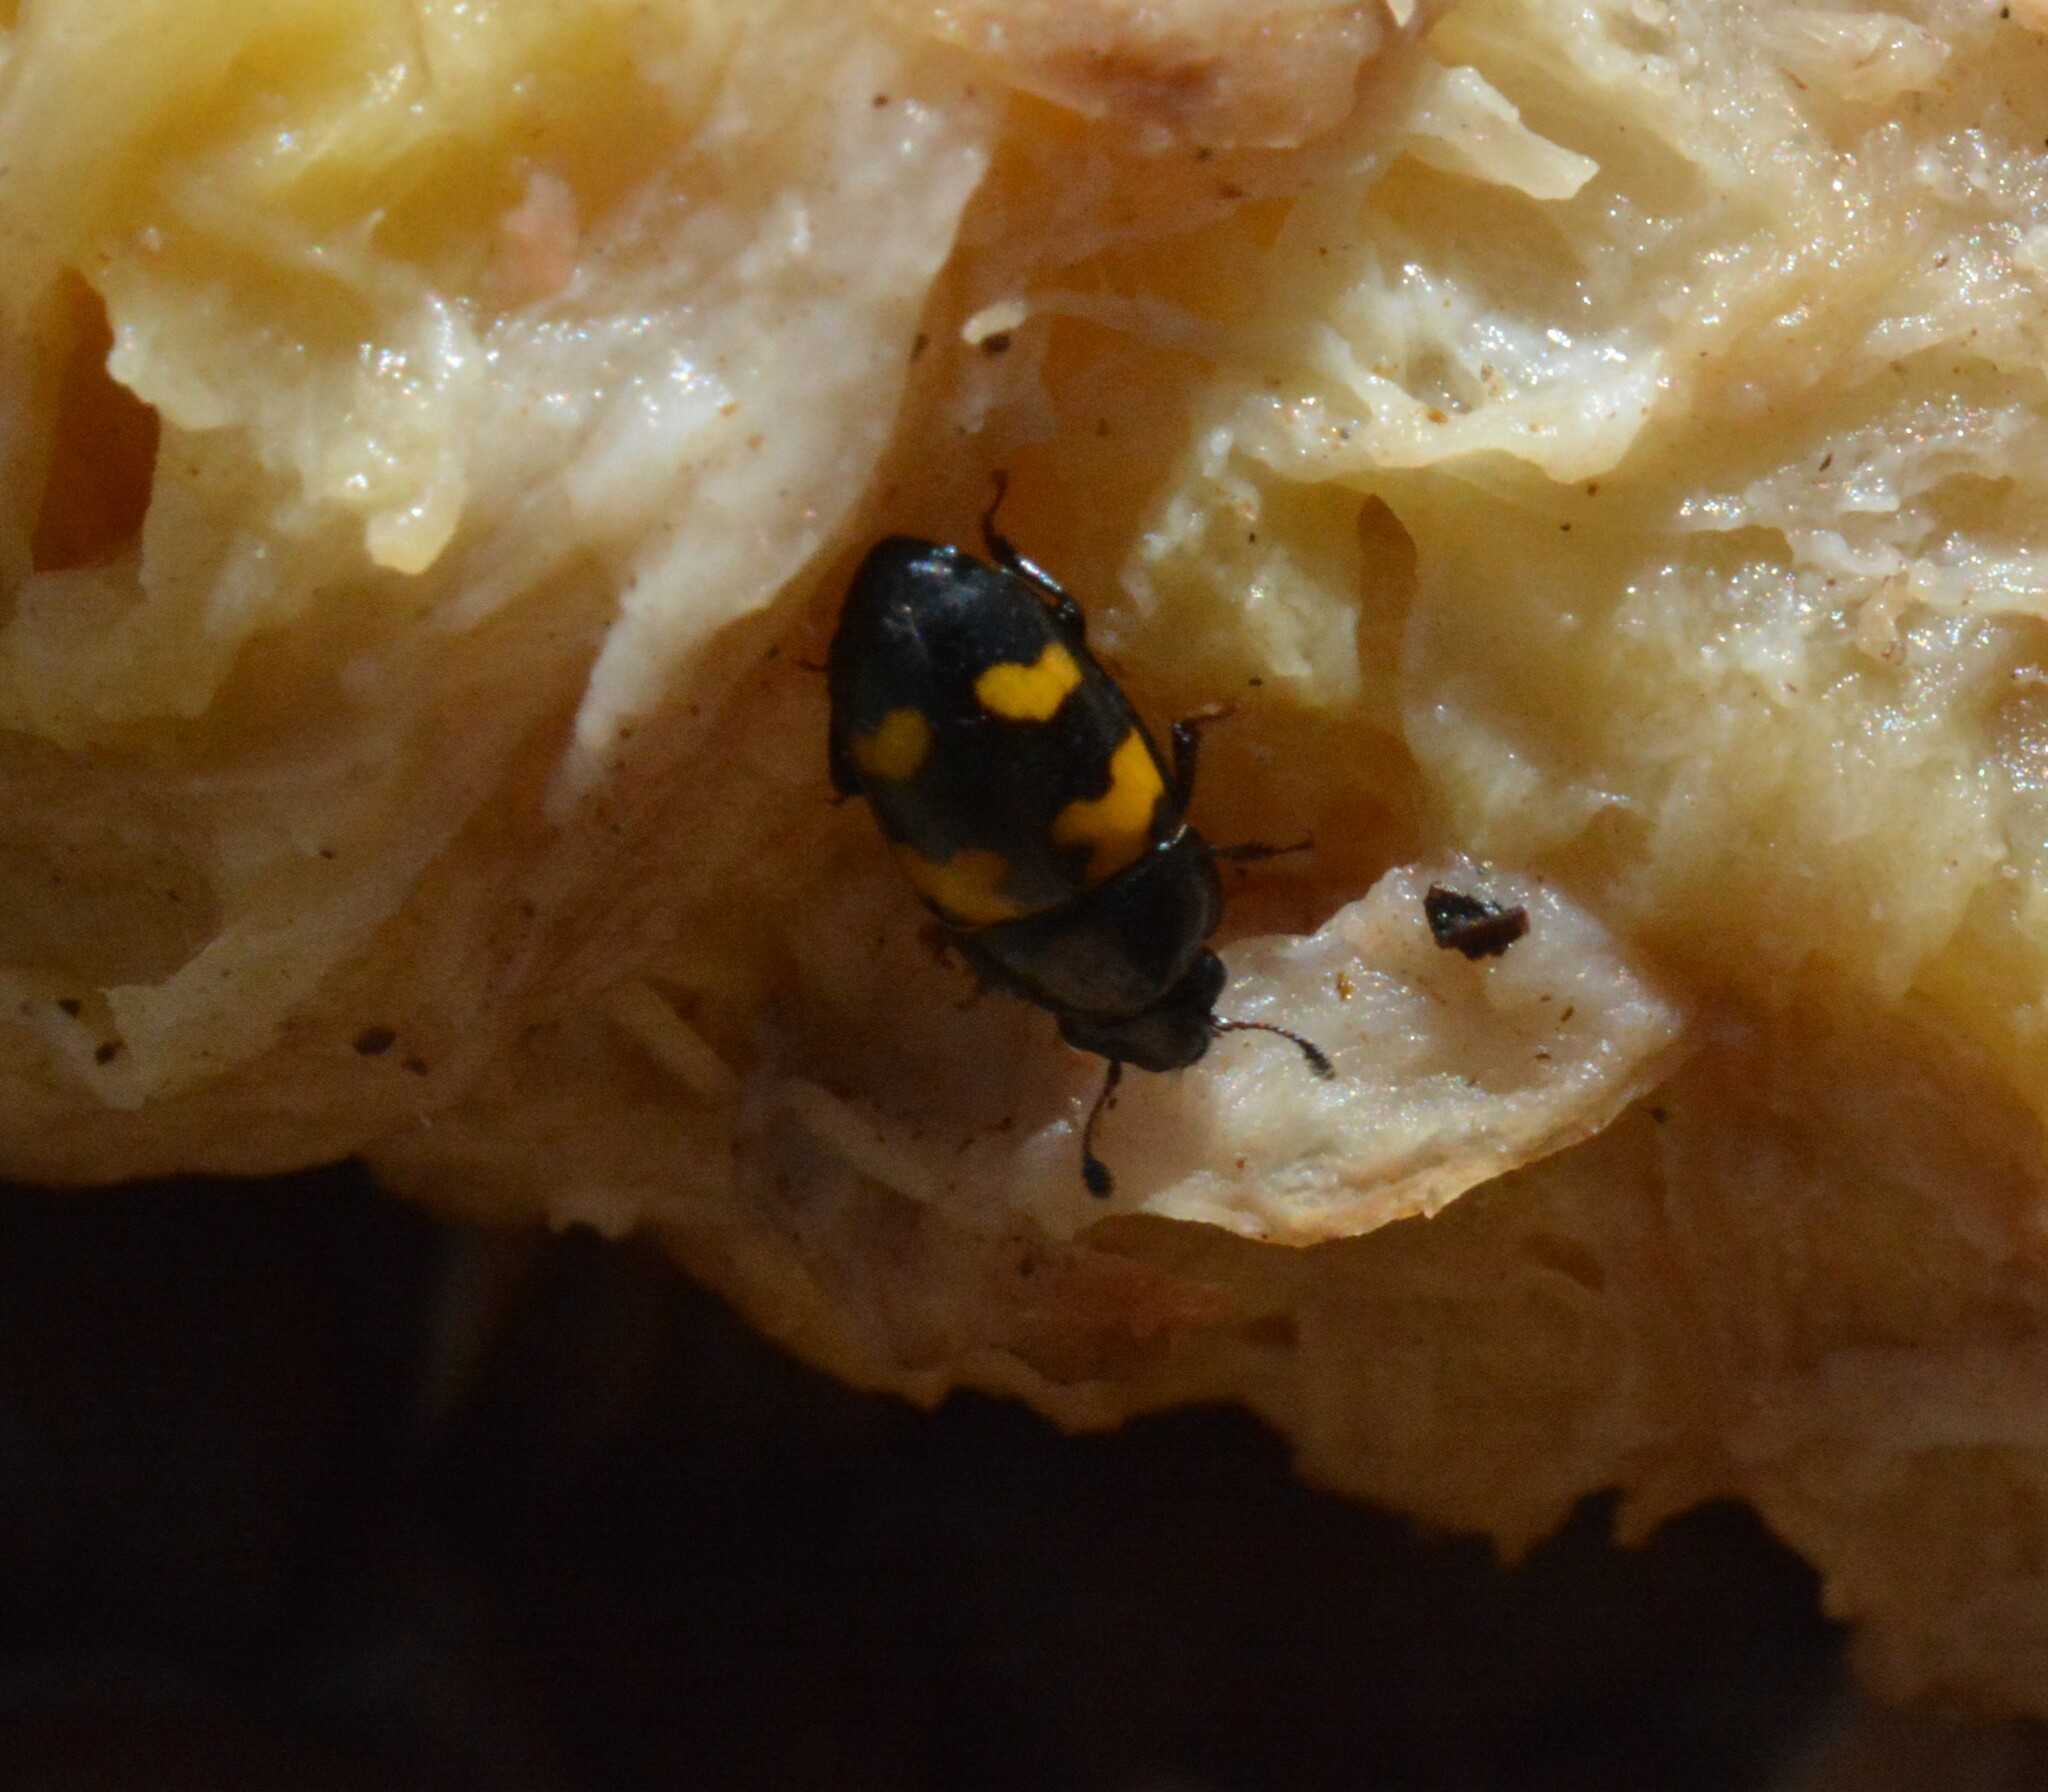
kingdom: Animalia
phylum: Arthropoda
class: Insecta
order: Coleoptera
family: Nitidulidae
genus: Glischrochilus
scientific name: Glischrochilus fasciatus
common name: Picnic beetle
